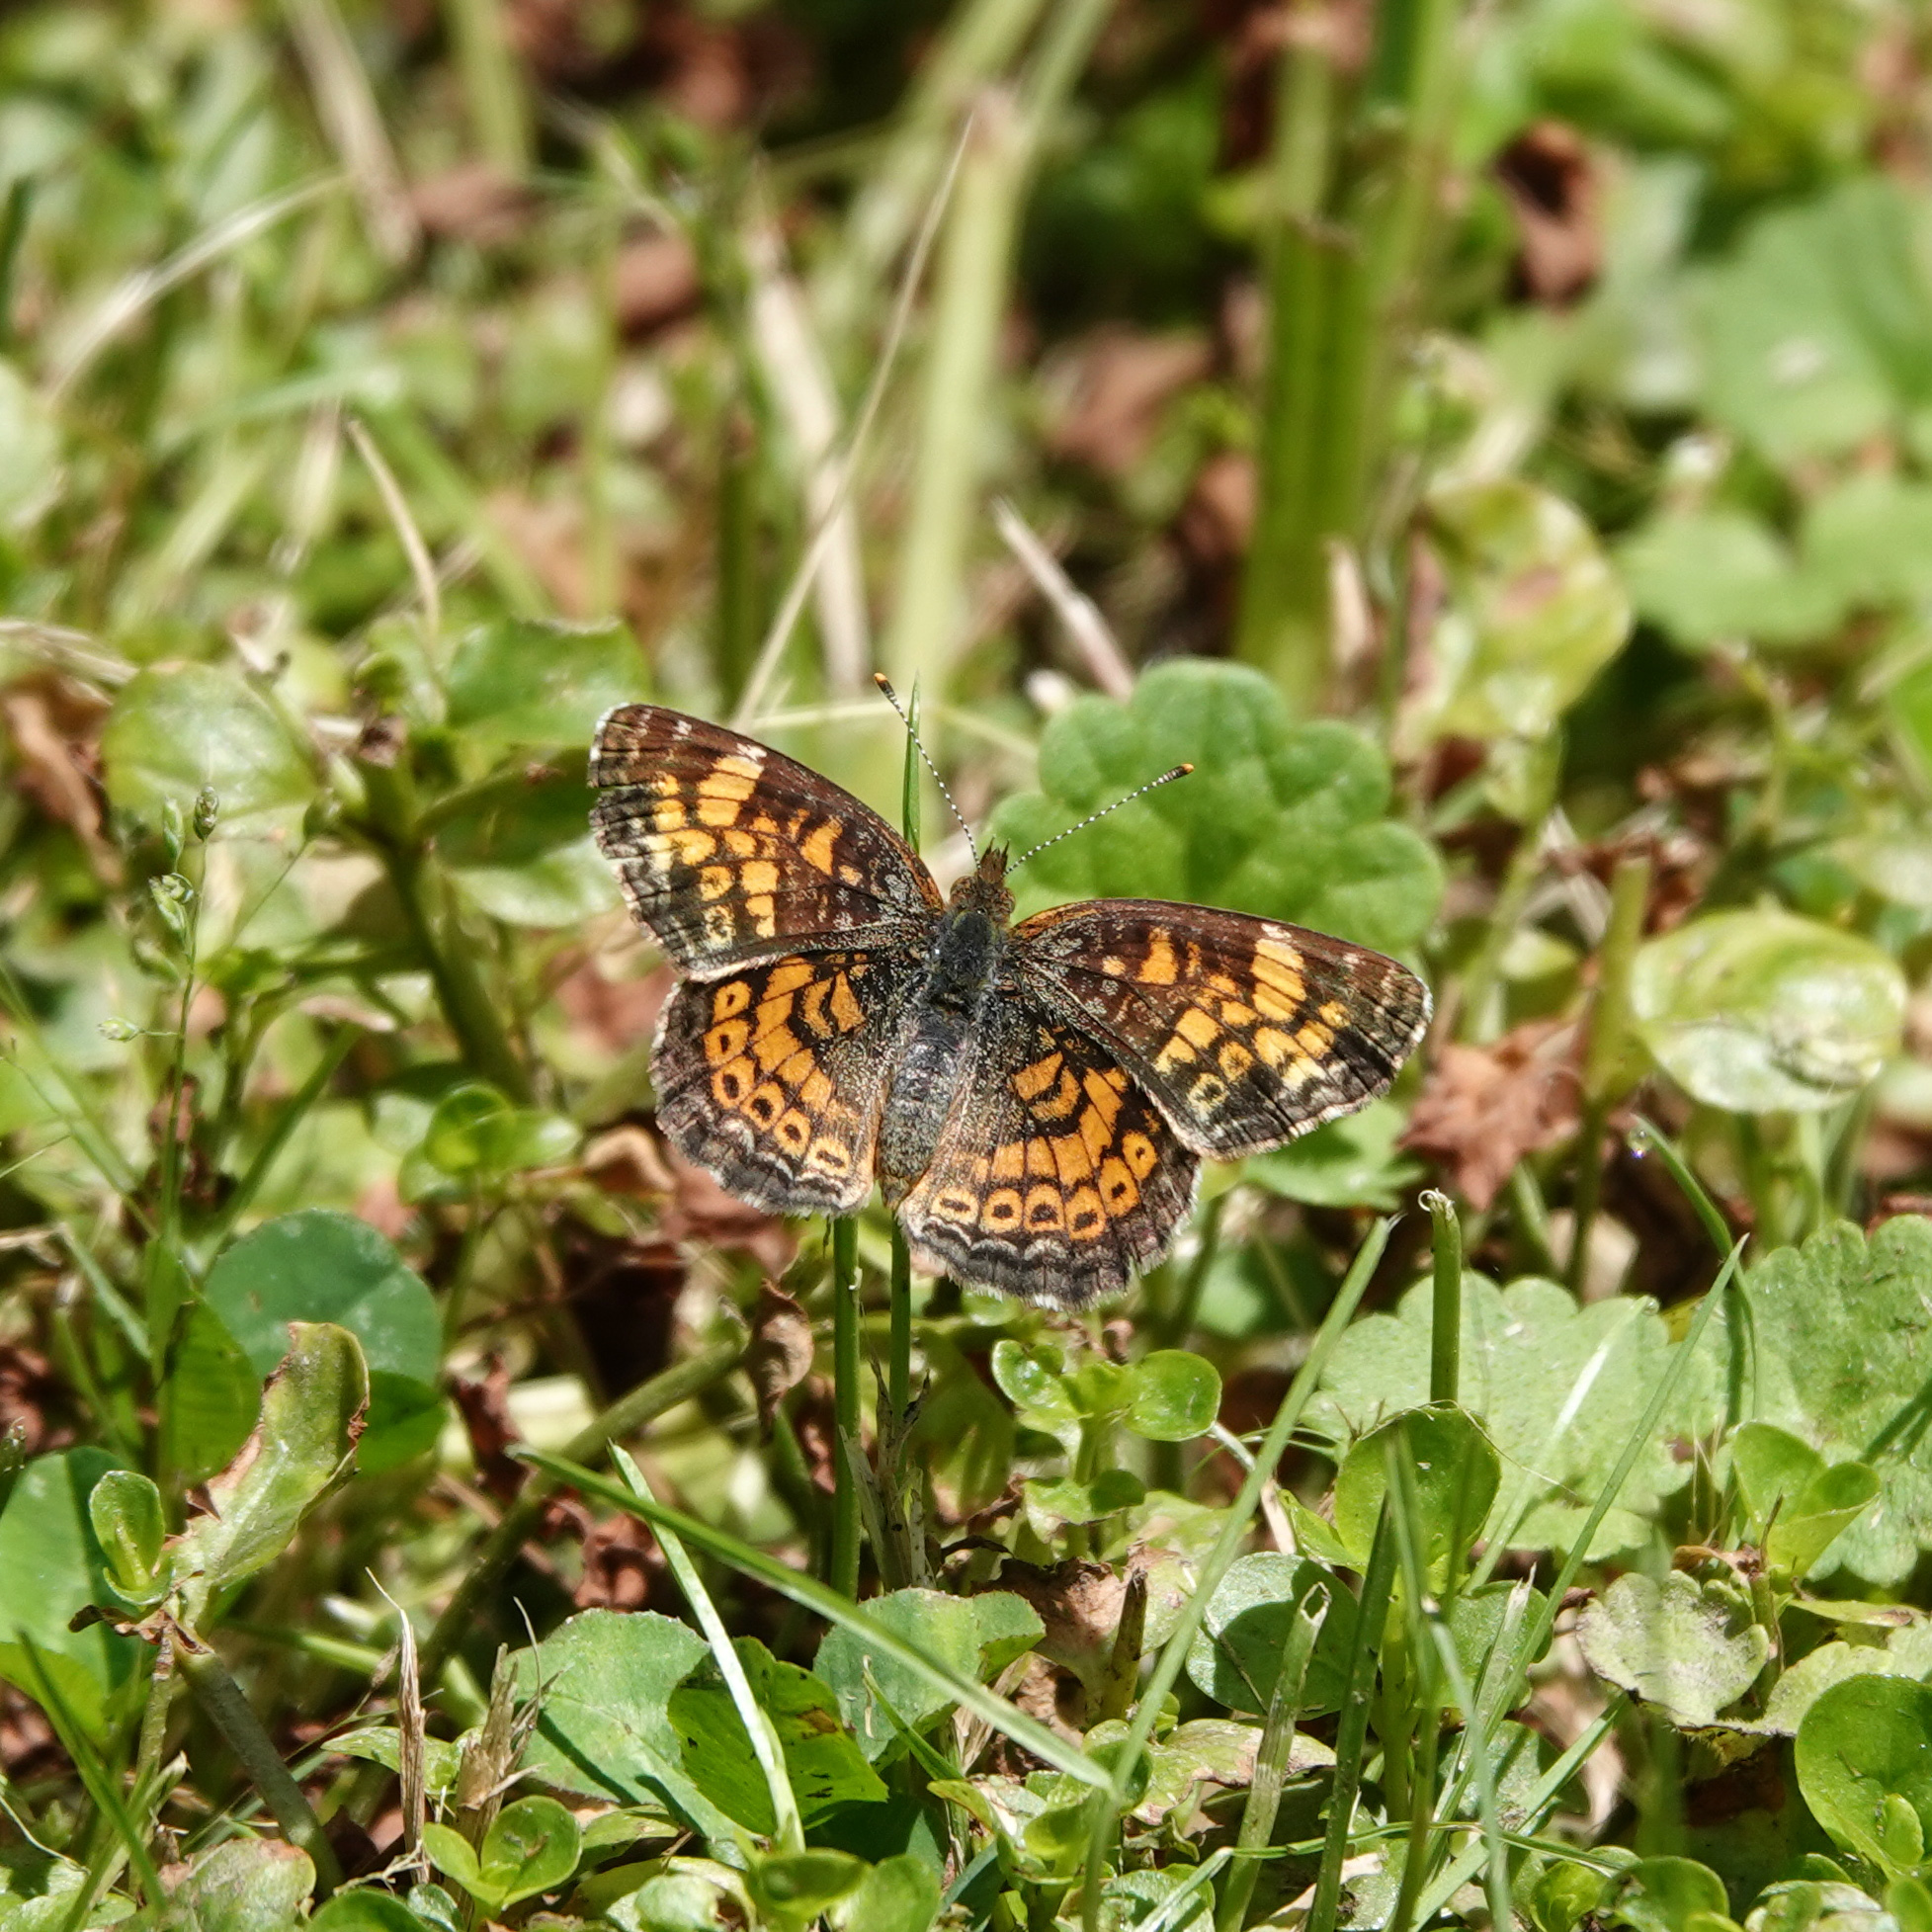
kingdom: Animalia
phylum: Arthropoda
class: Insecta
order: Lepidoptera
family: Nymphalidae
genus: Phyciodes
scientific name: Phyciodes tharos
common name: Pearl crescent
